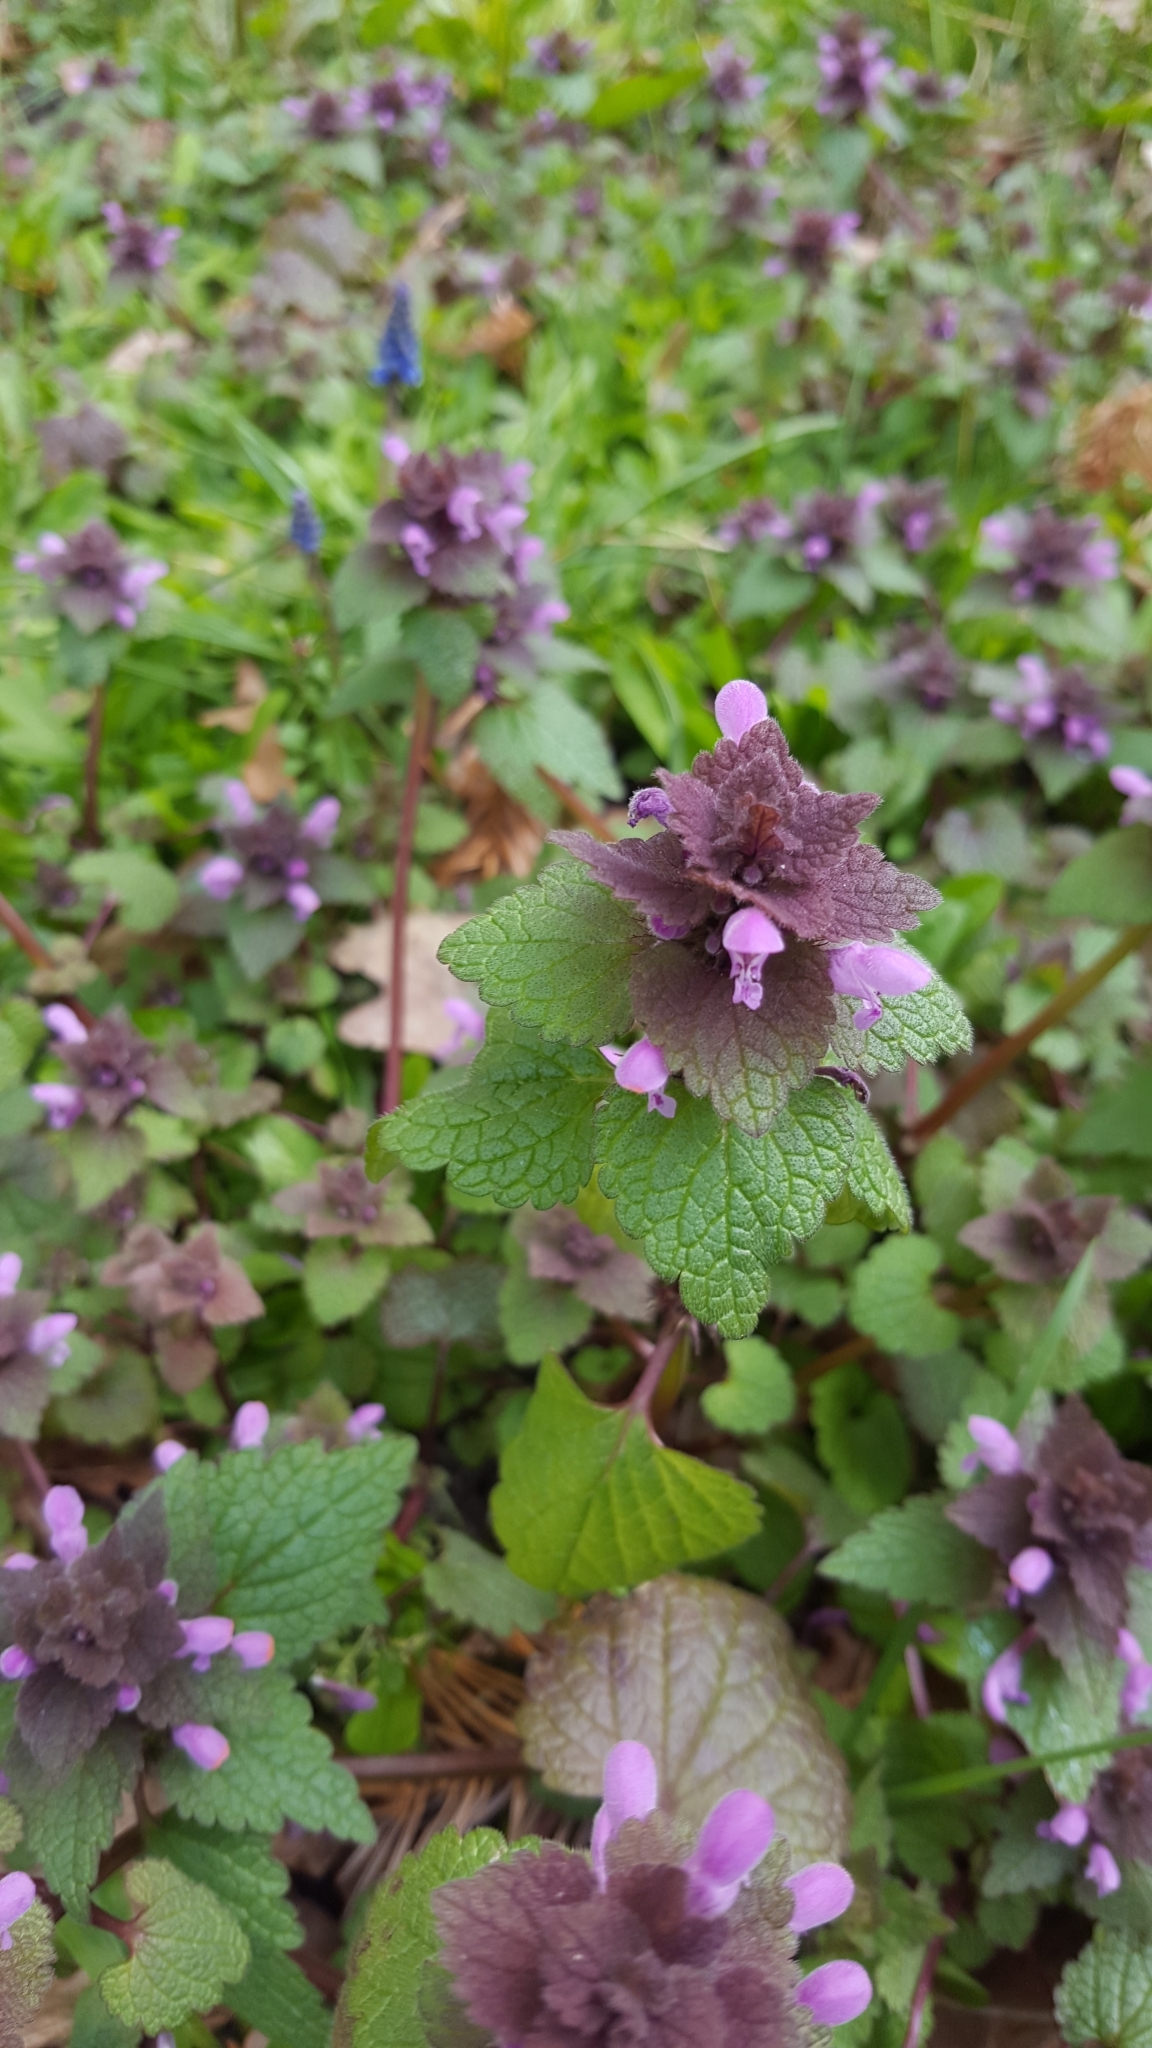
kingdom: Plantae
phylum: Tracheophyta
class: Magnoliopsida
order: Lamiales
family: Lamiaceae
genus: Lamium
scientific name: Lamium purpureum
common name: Red dead-nettle
